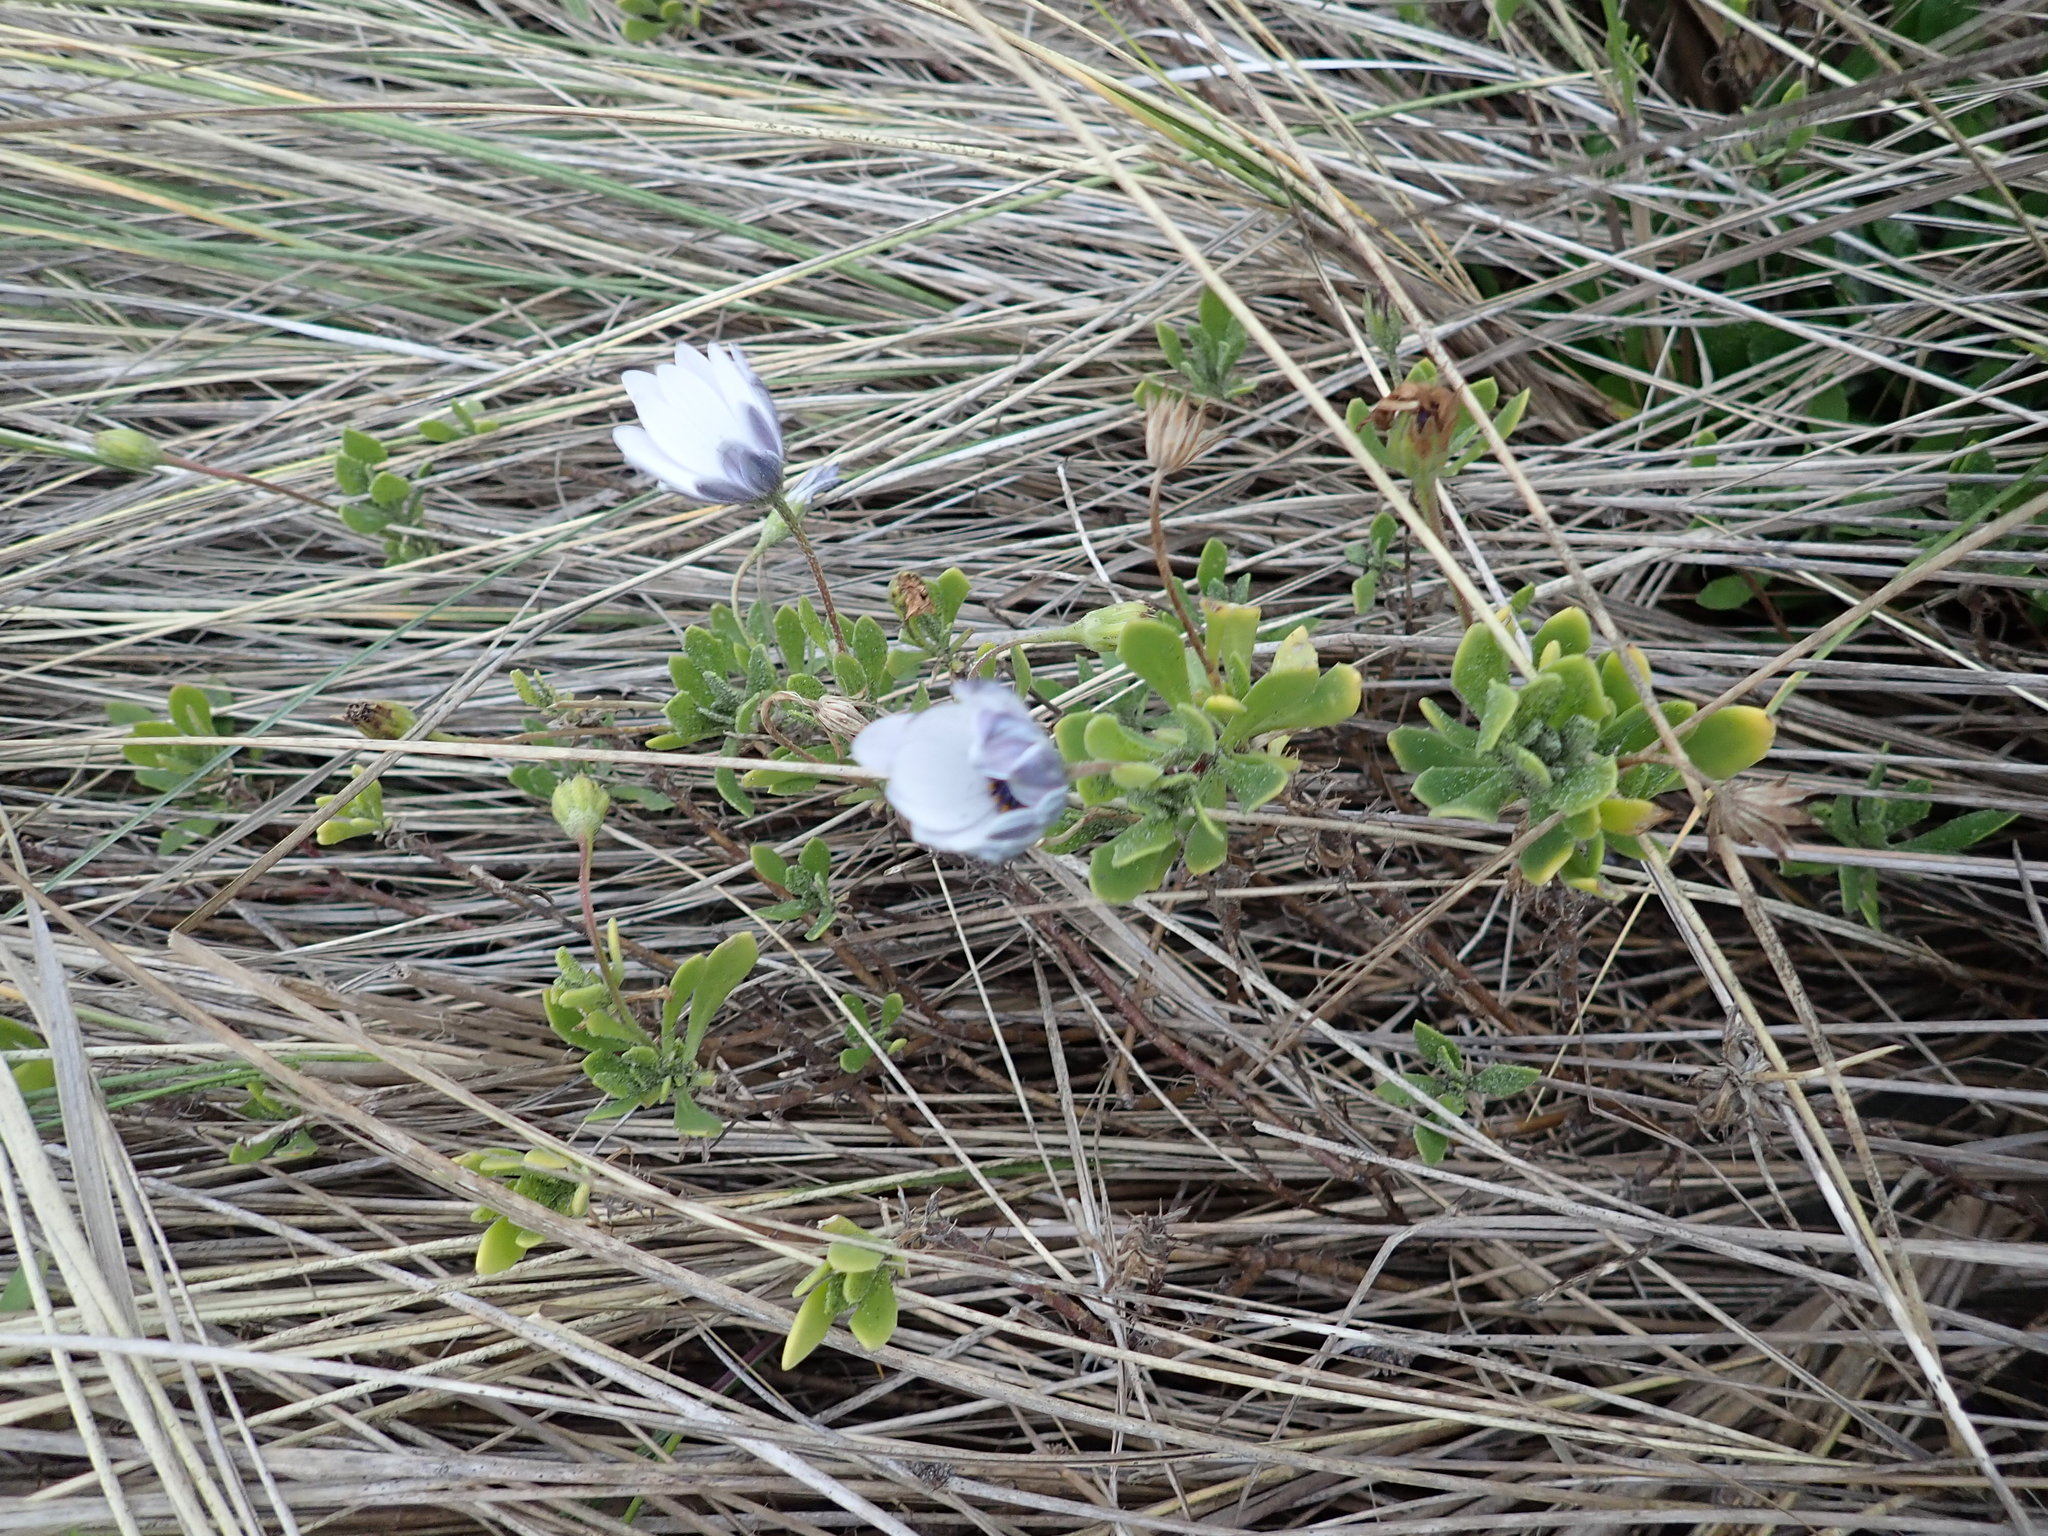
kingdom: Plantae
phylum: Tracheophyta
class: Magnoliopsida
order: Asterales
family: Asteraceae
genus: Dimorphotheca
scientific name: Dimorphotheca fruticosa
